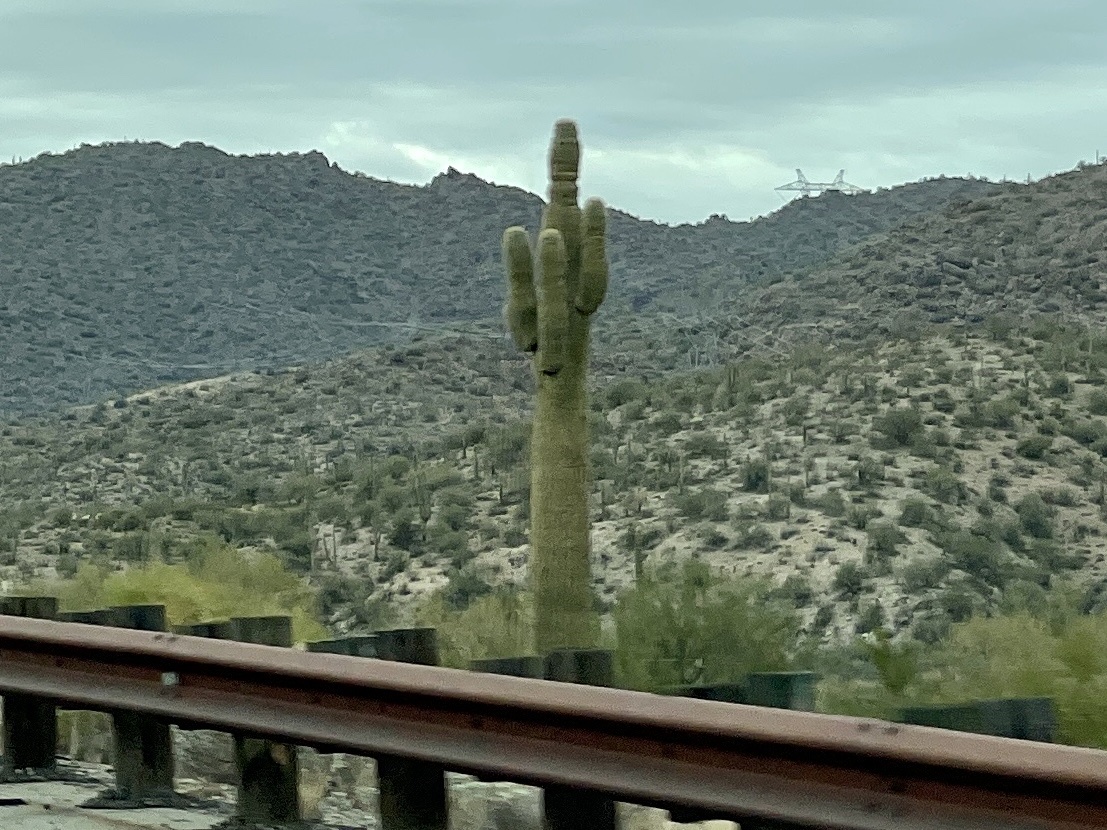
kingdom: Plantae
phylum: Tracheophyta
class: Magnoliopsida
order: Caryophyllales
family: Cactaceae
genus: Carnegiea
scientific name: Carnegiea gigantea
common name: Saguaro
